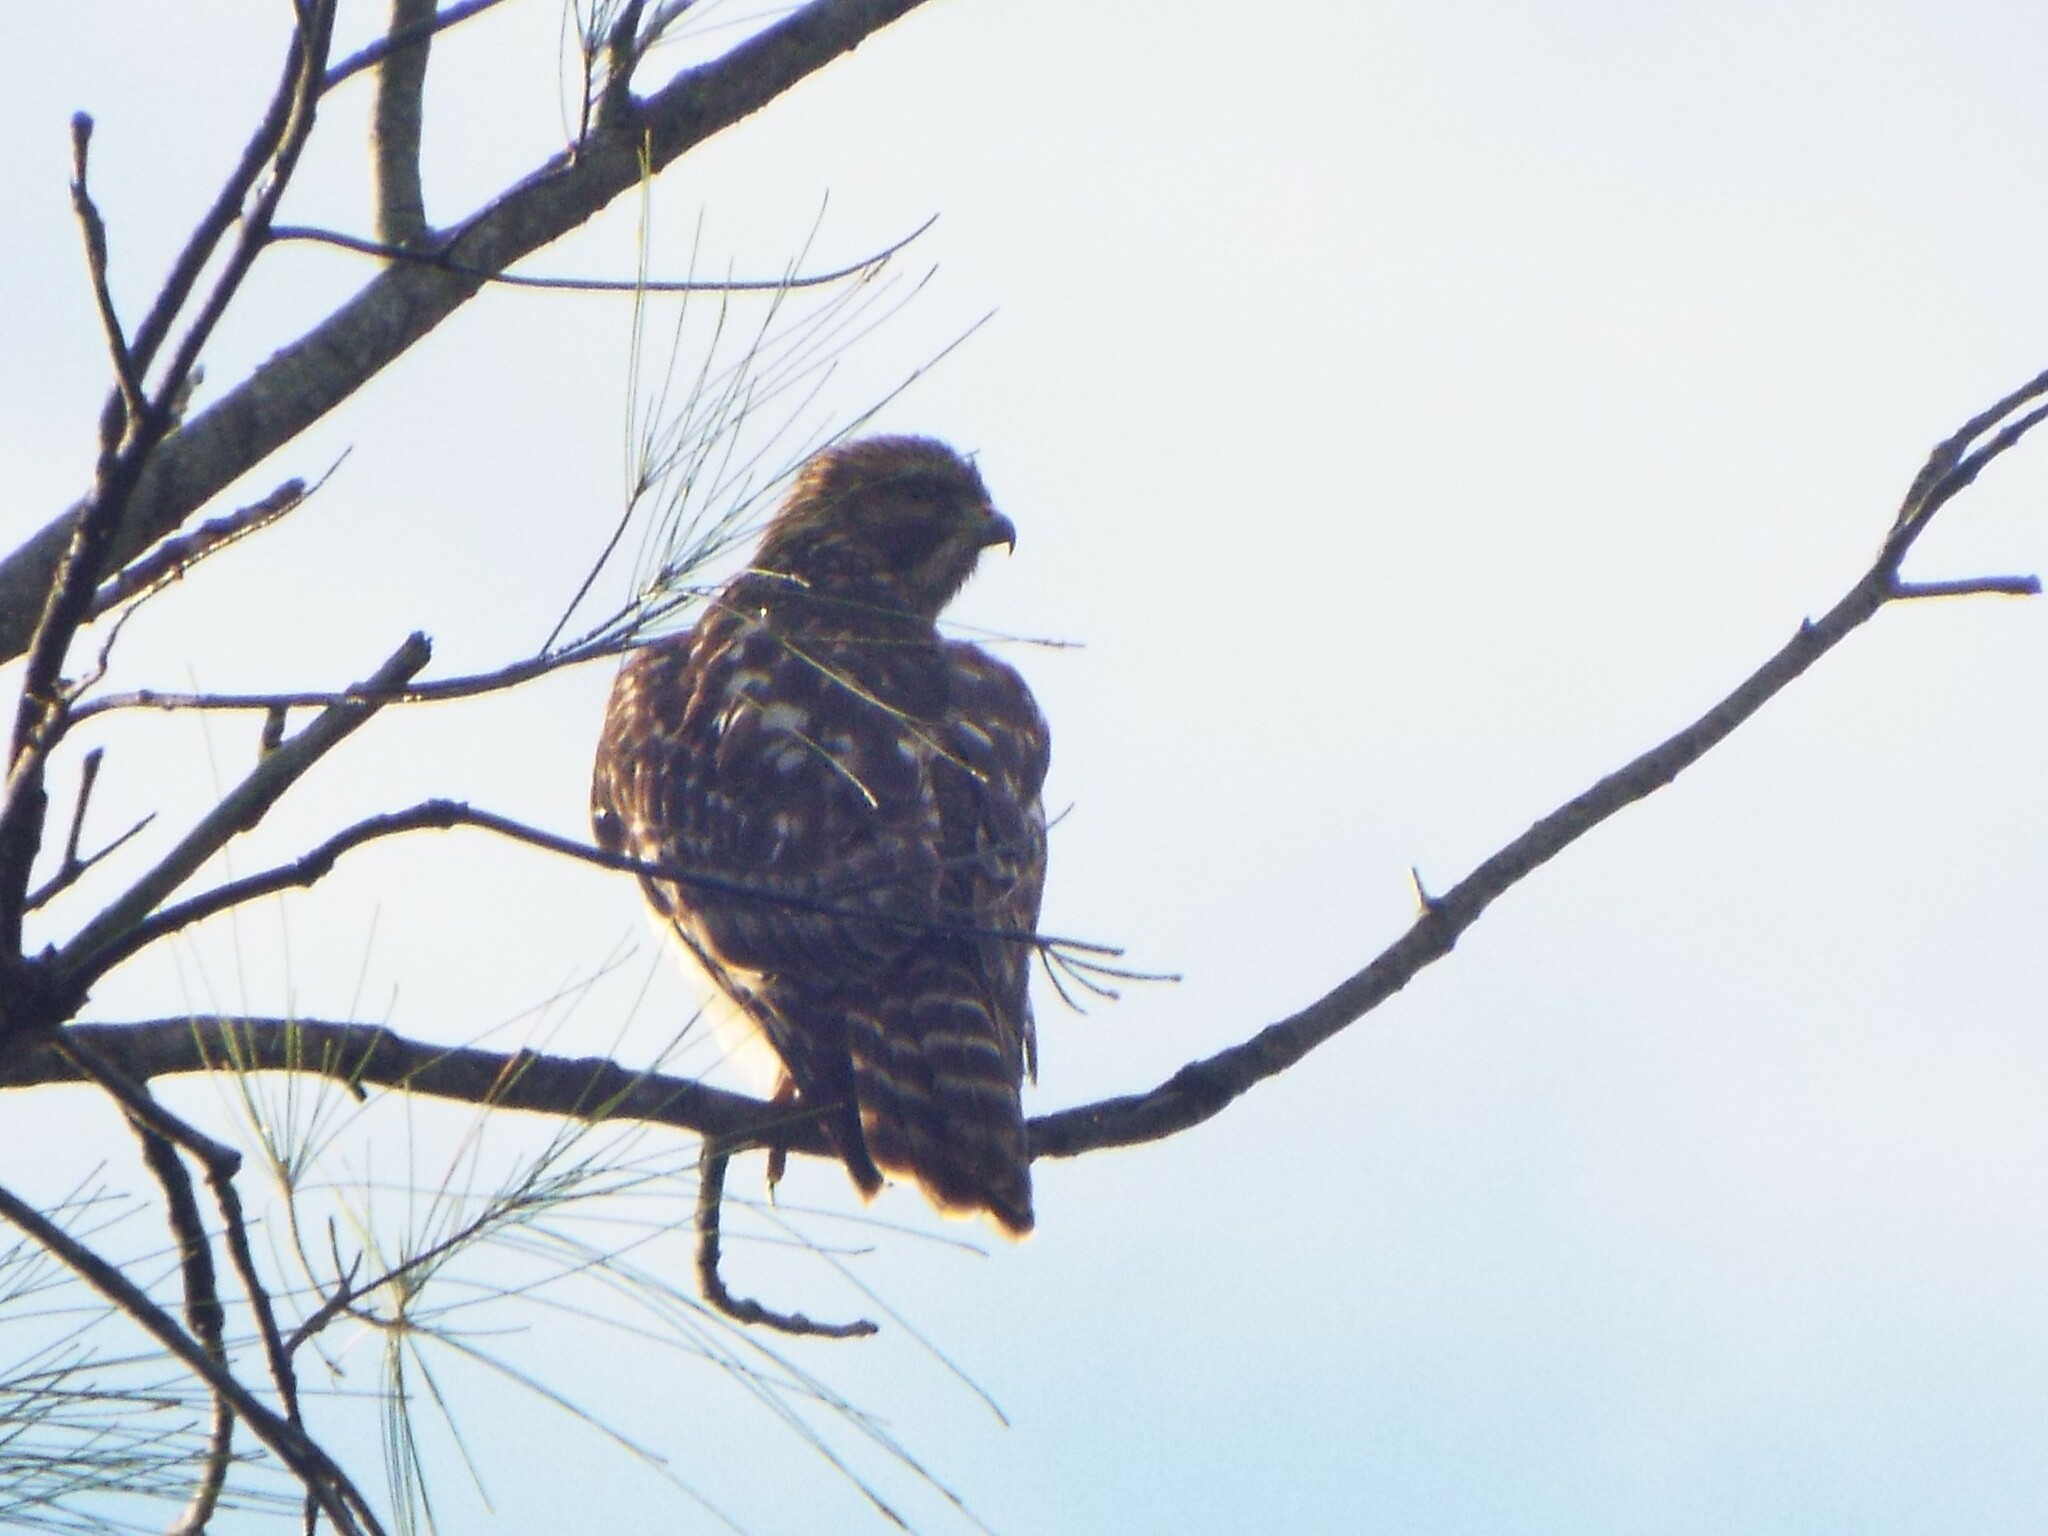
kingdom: Animalia
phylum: Chordata
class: Aves
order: Accipitriformes
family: Accipitridae
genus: Buteo
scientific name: Buteo lineatus
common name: Red-shouldered hawk
